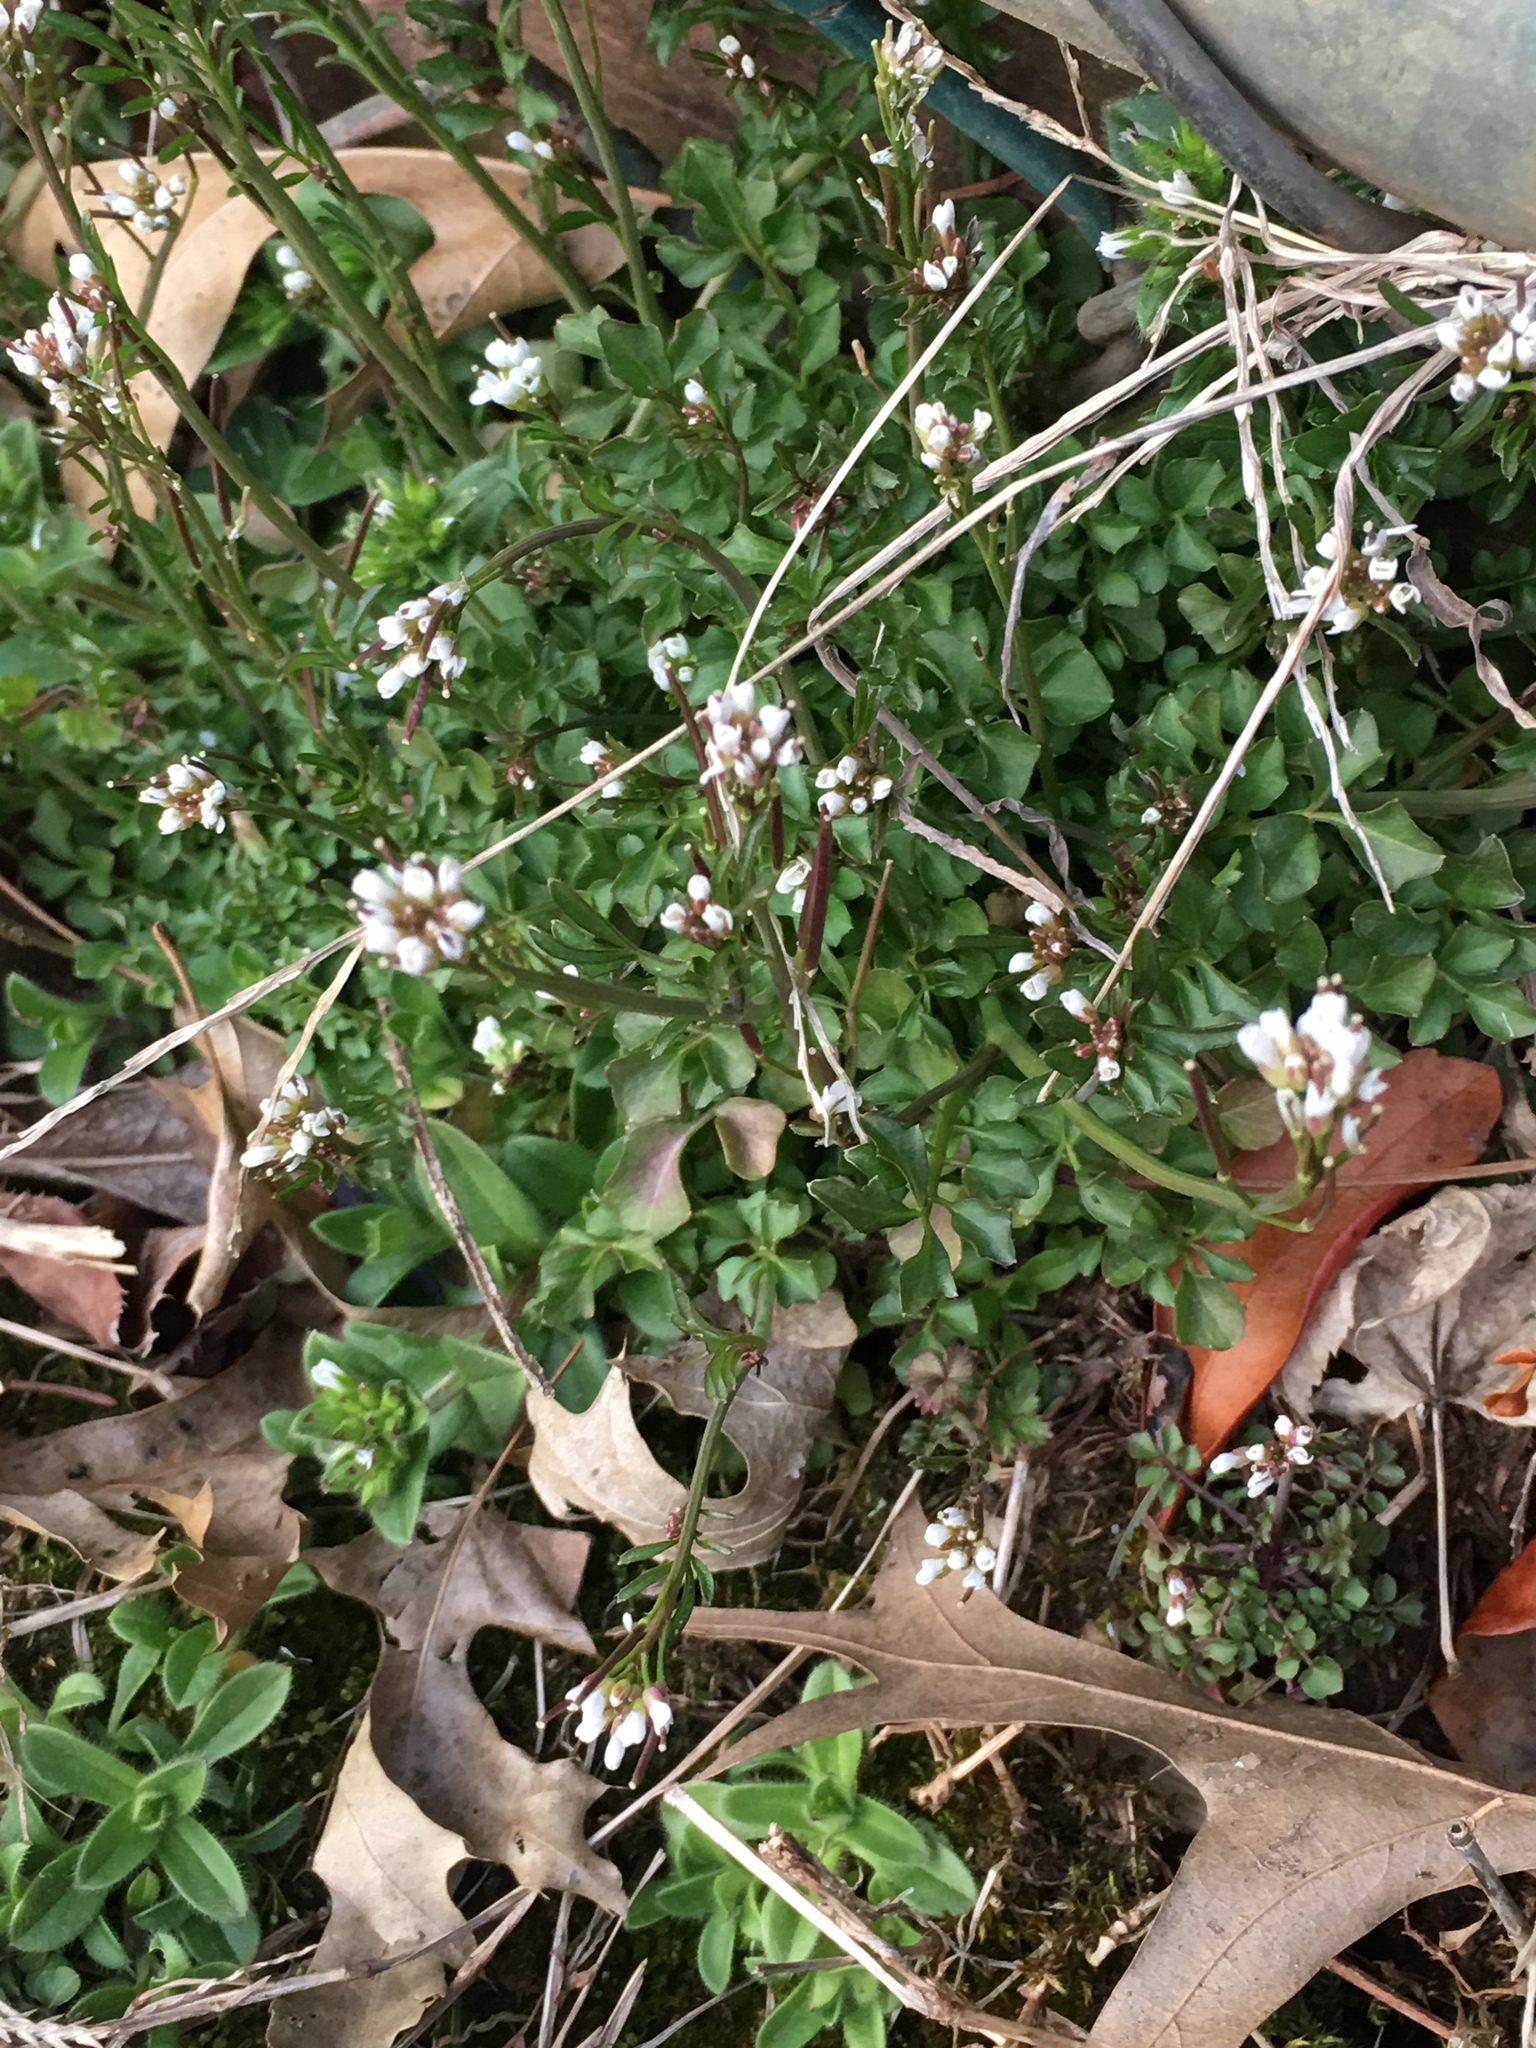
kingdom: Plantae
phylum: Tracheophyta
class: Magnoliopsida
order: Brassicales
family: Brassicaceae
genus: Cardamine
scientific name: Cardamine hirsuta
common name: Hairy bittercress
